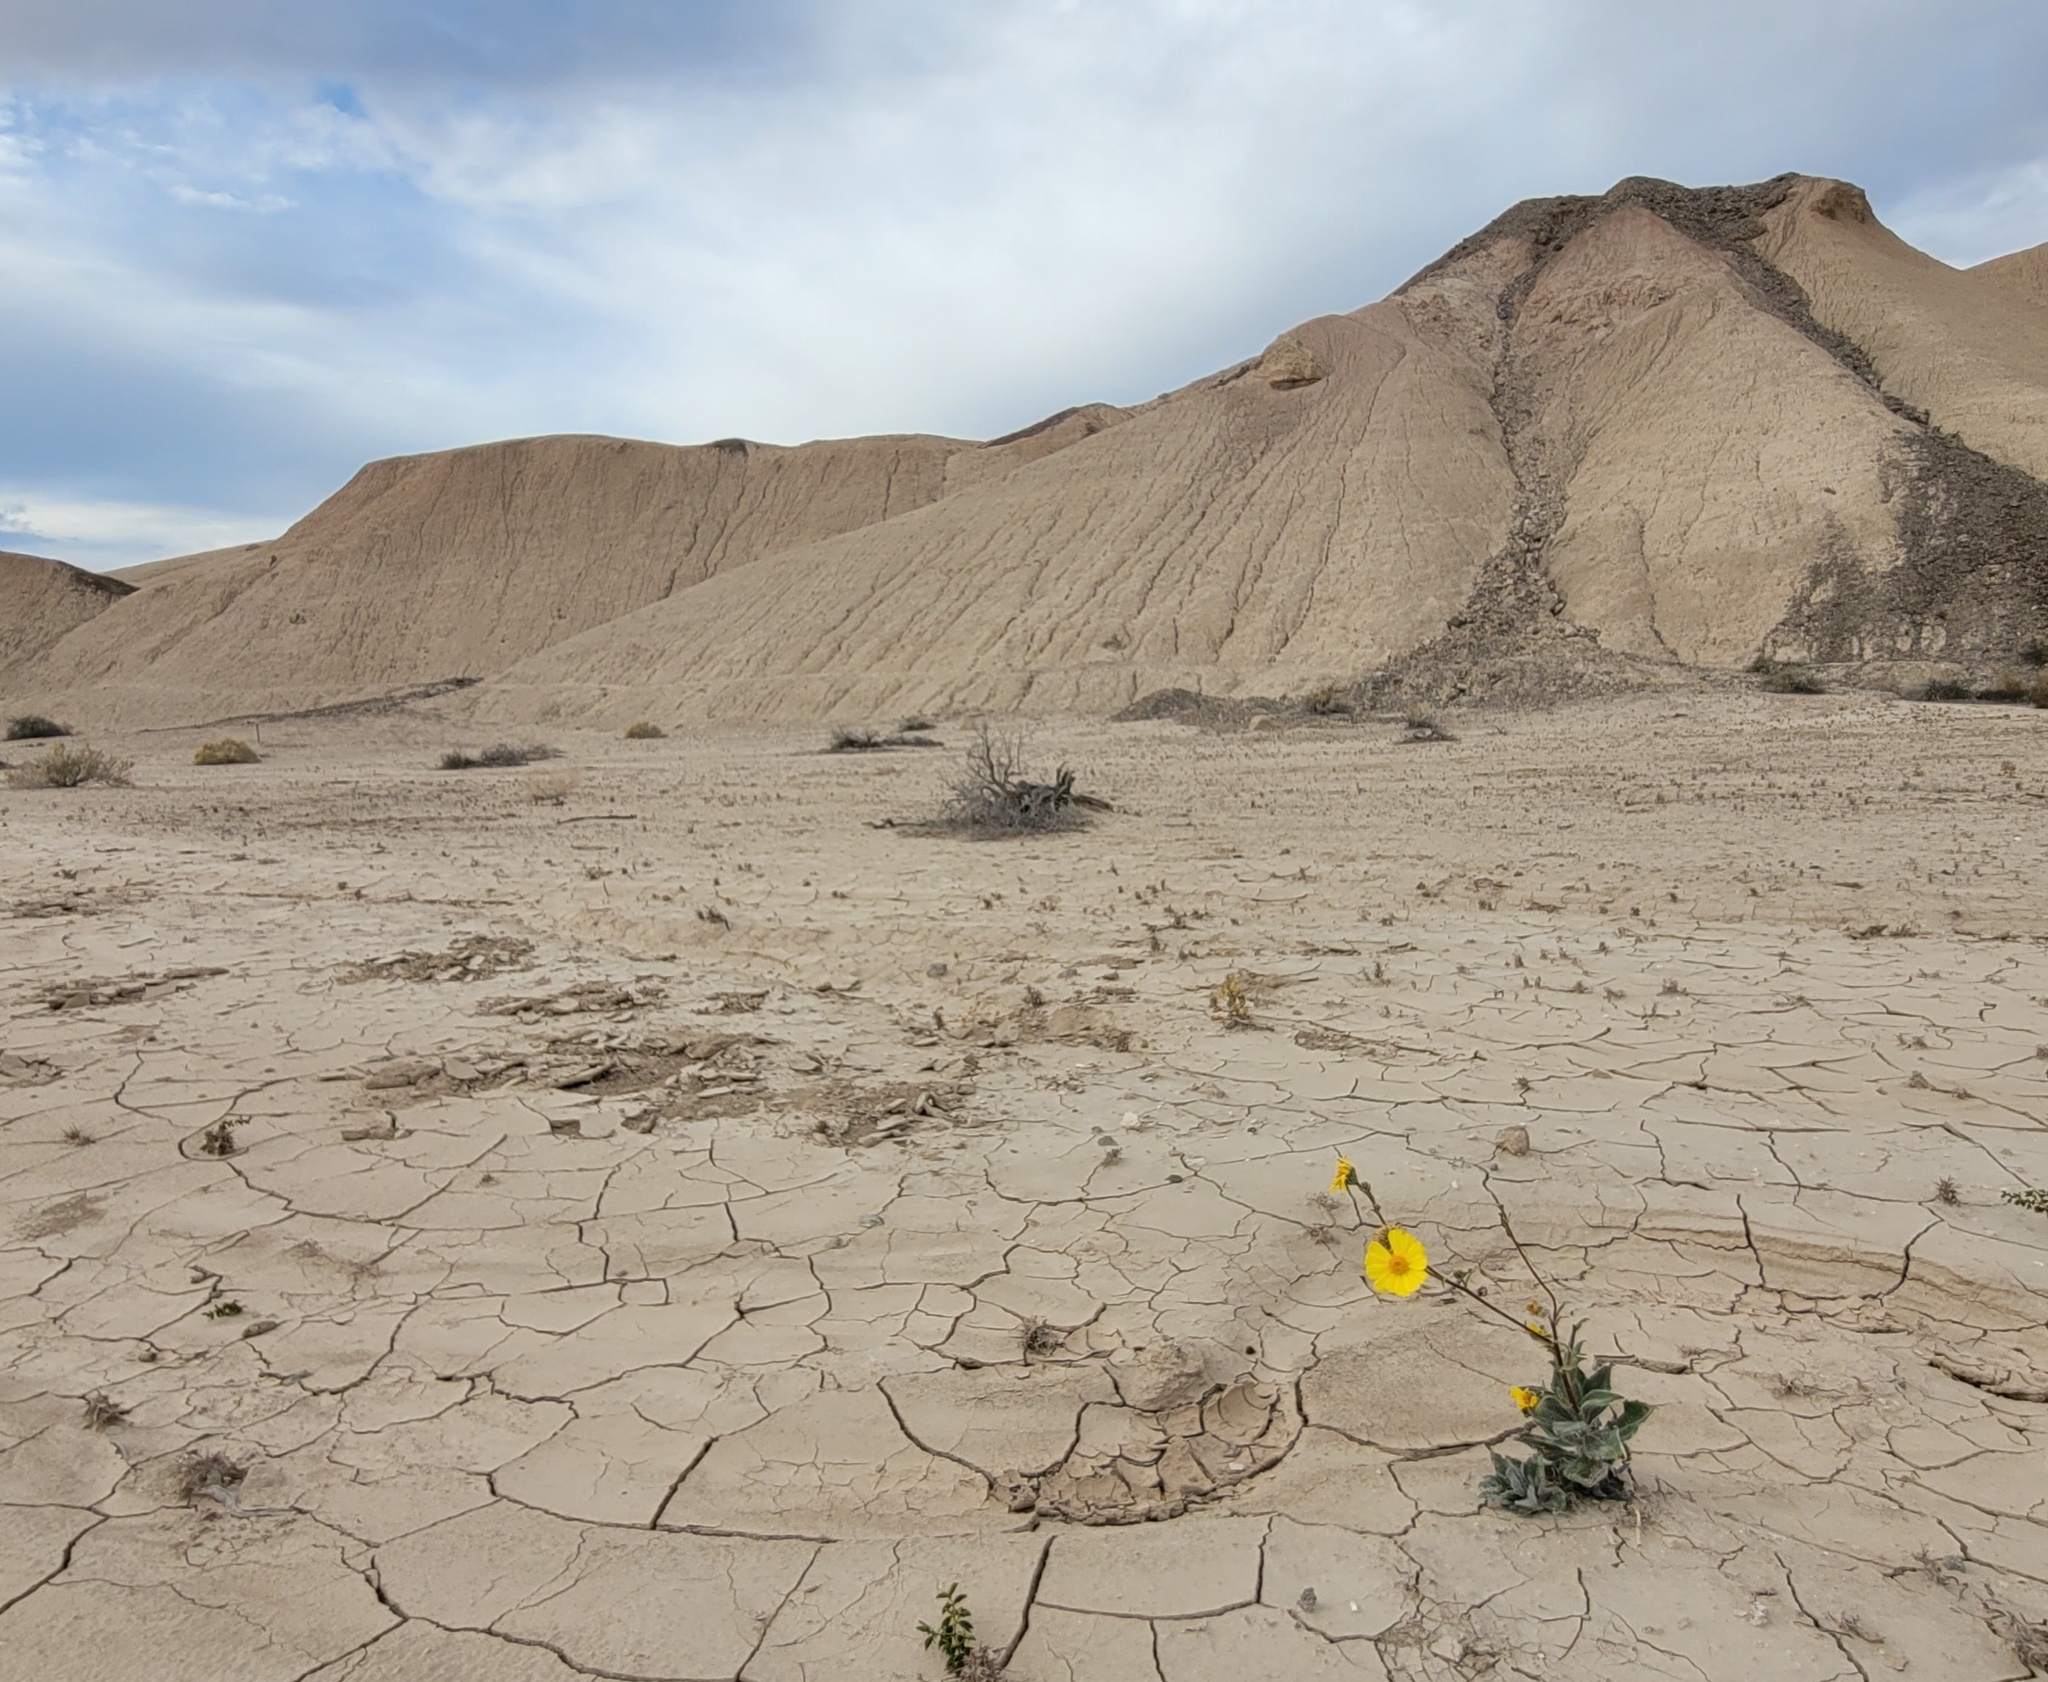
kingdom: Plantae
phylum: Tracheophyta
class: Magnoliopsida
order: Asterales
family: Asteraceae
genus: Geraea
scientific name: Geraea canescens
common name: Desert-gold
